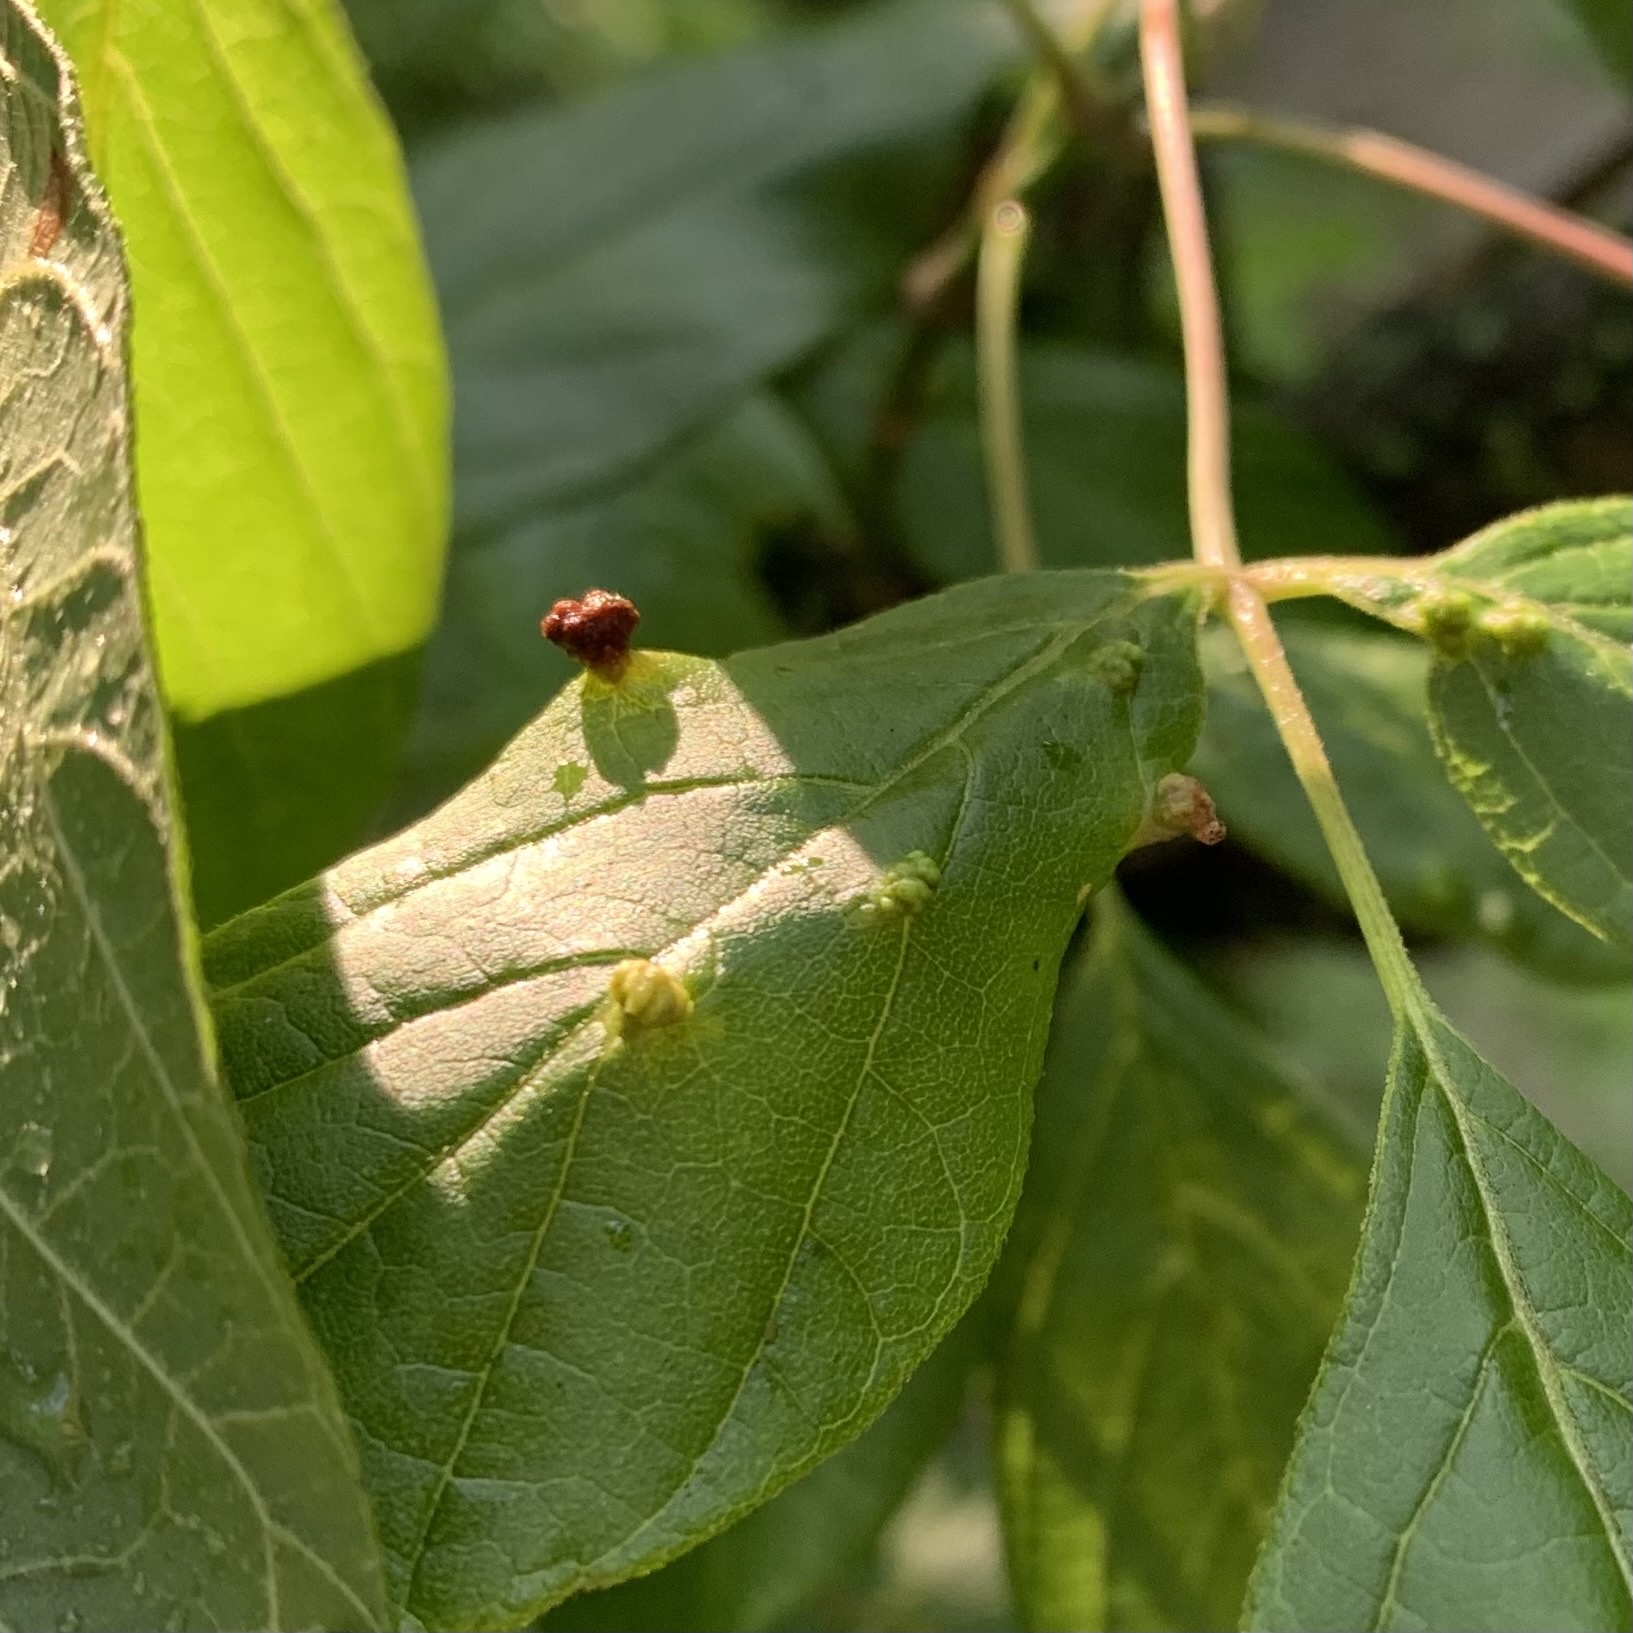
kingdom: Animalia
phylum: Arthropoda
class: Arachnida
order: Trombidiformes
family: Eriophyidae
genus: Aceria
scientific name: Aceria
